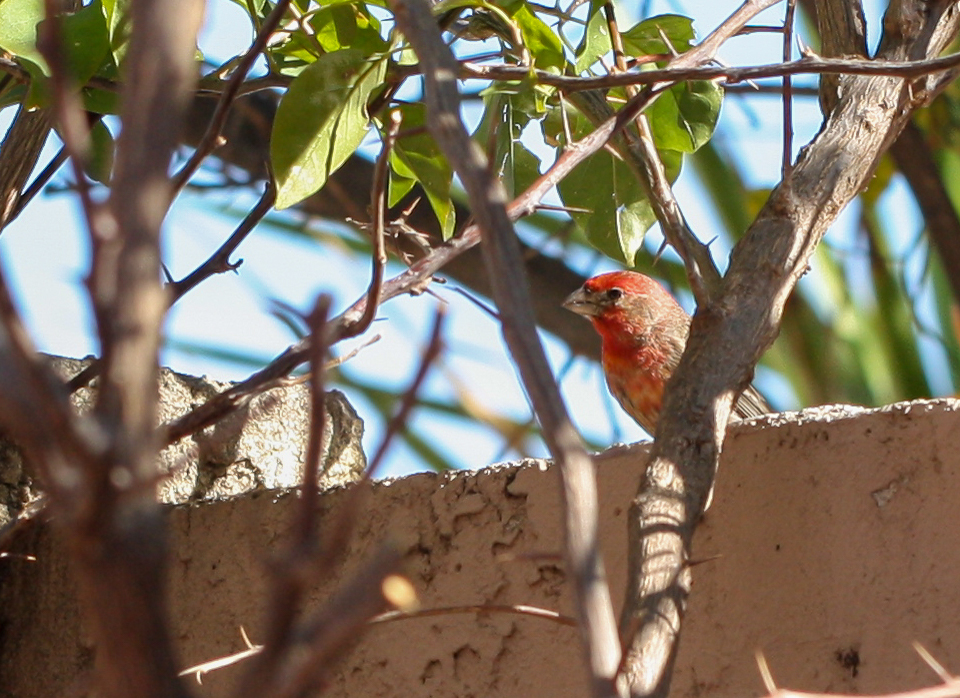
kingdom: Animalia
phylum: Chordata
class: Aves
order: Passeriformes
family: Fringillidae
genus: Haemorhous
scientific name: Haemorhous mexicanus
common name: House finch
